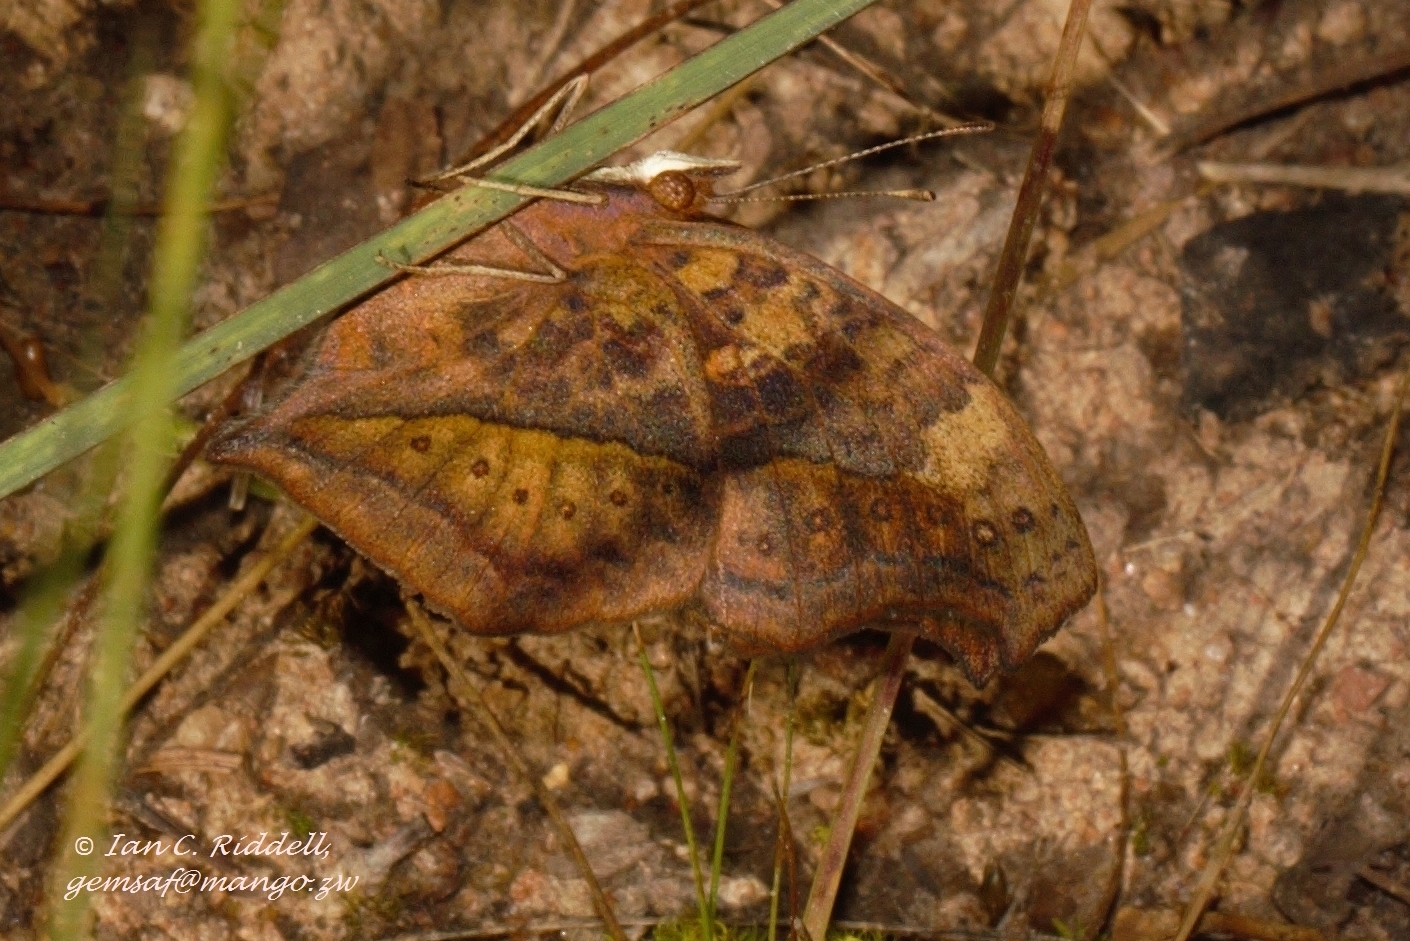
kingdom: Animalia
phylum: Arthropoda
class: Insecta
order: Lepidoptera
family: Nymphalidae
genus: Junonia
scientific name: Junonia antilope
